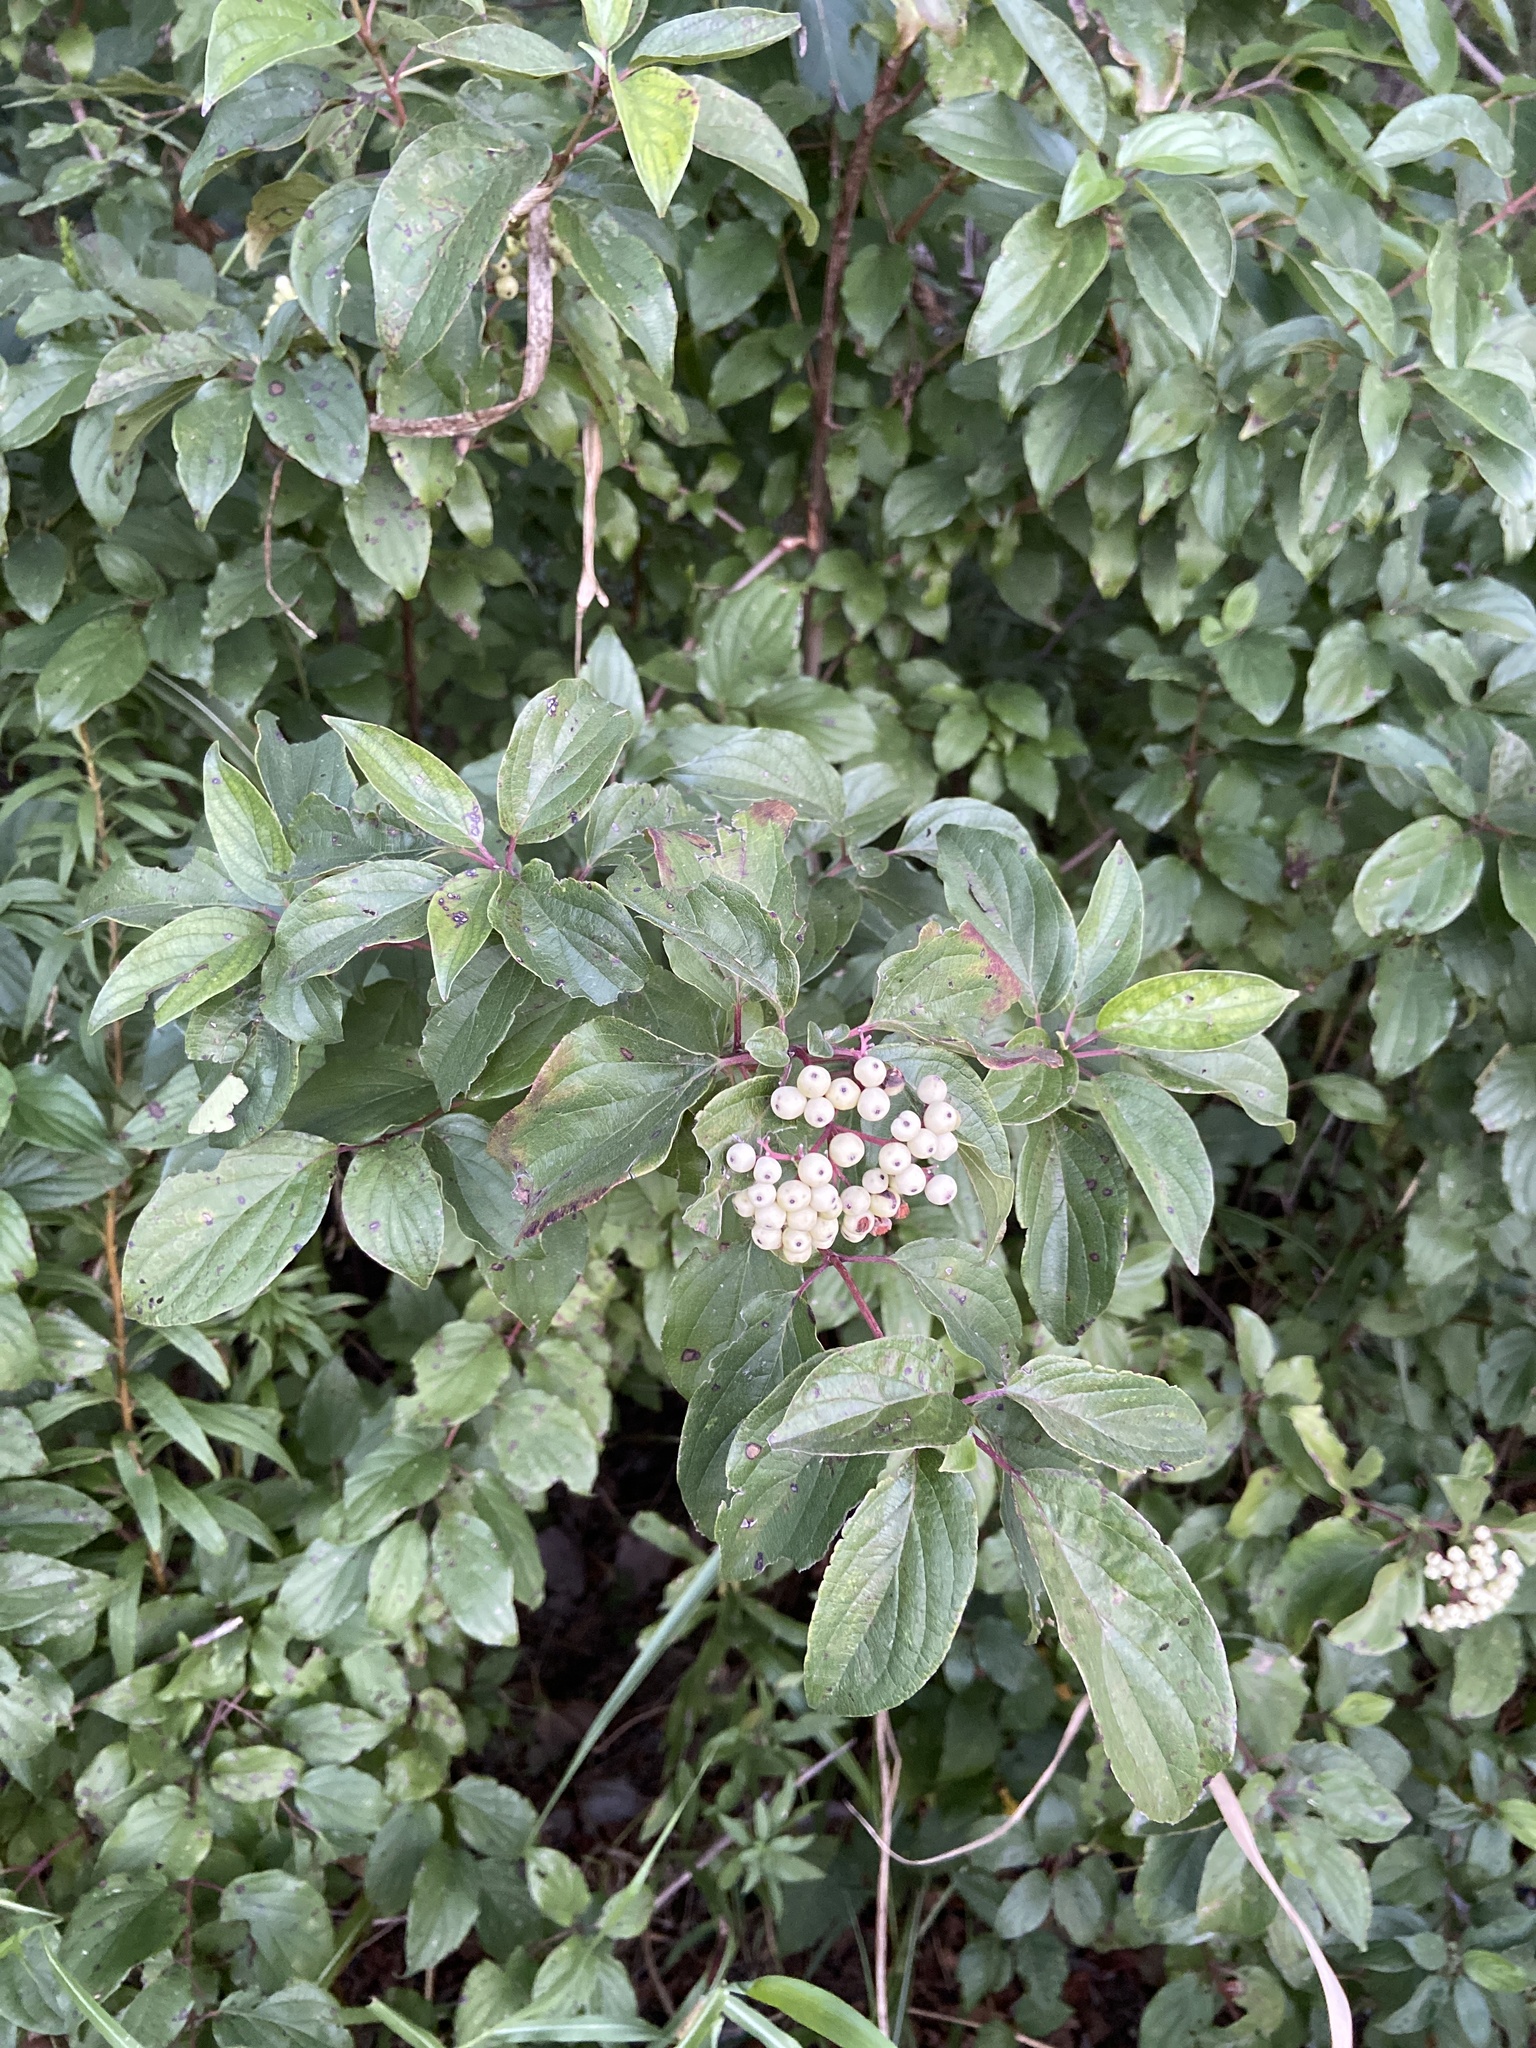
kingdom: Plantae
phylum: Tracheophyta
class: Magnoliopsida
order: Cornales
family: Cornaceae
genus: Cornus
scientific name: Cornus drummondii
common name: Rough-leaf dogwood
